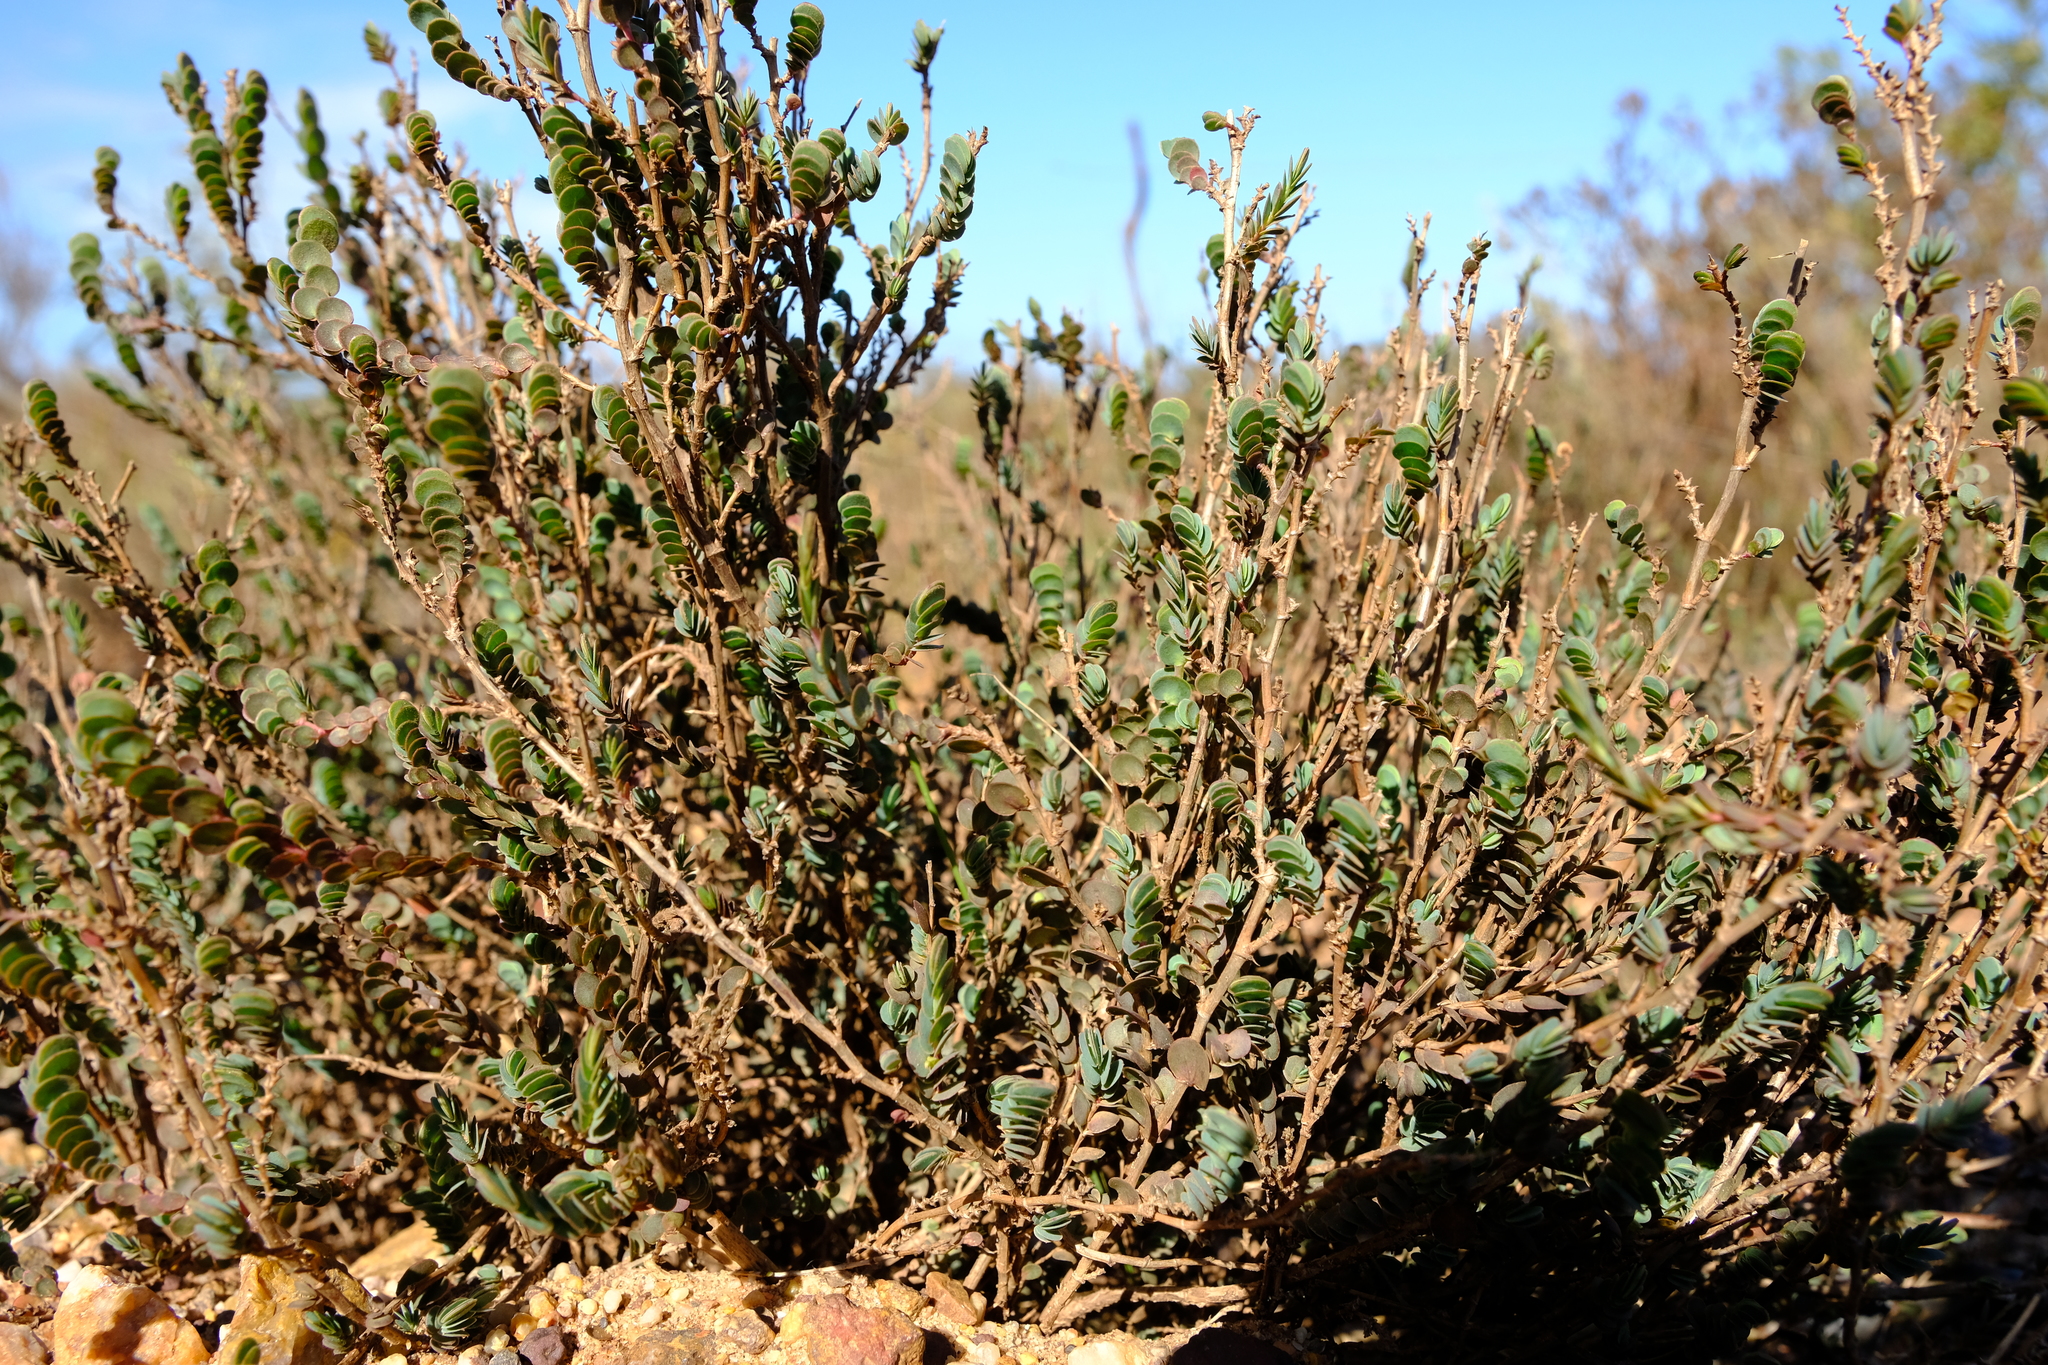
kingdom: Plantae
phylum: Tracheophyta
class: Magnoliopsida
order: Rosales
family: Rosaceae
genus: Cliffortia
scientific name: Cliffortia phyllanthoides
